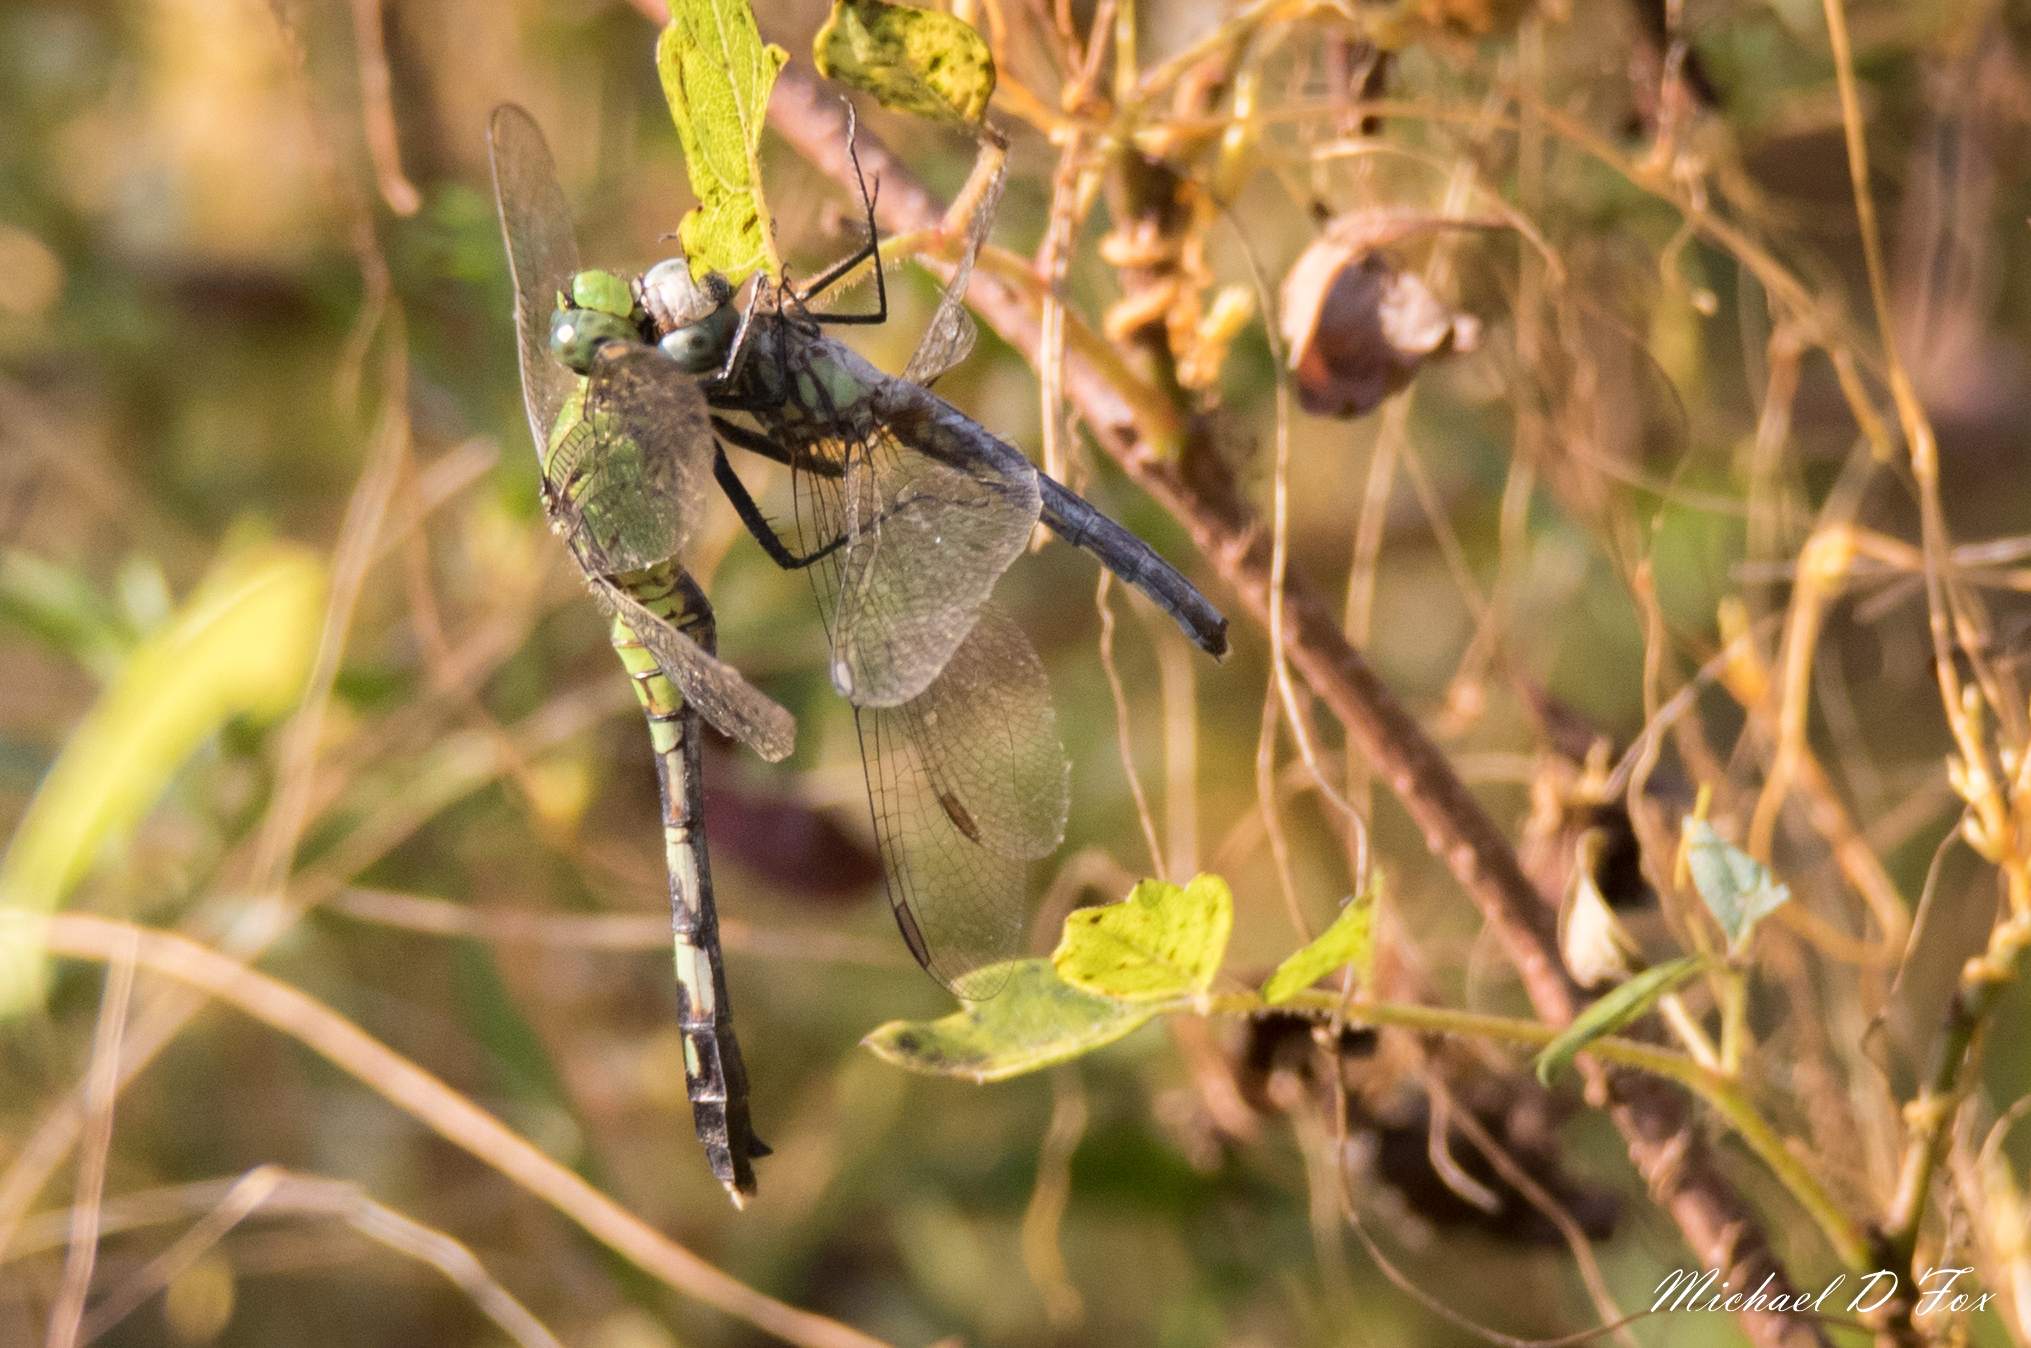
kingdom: Animalia
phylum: Arthropoda
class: Insecta
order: Odonata
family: Libellulidae
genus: Erythemis
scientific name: Erythemis simplicicollis
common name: Eastern pondhawk
